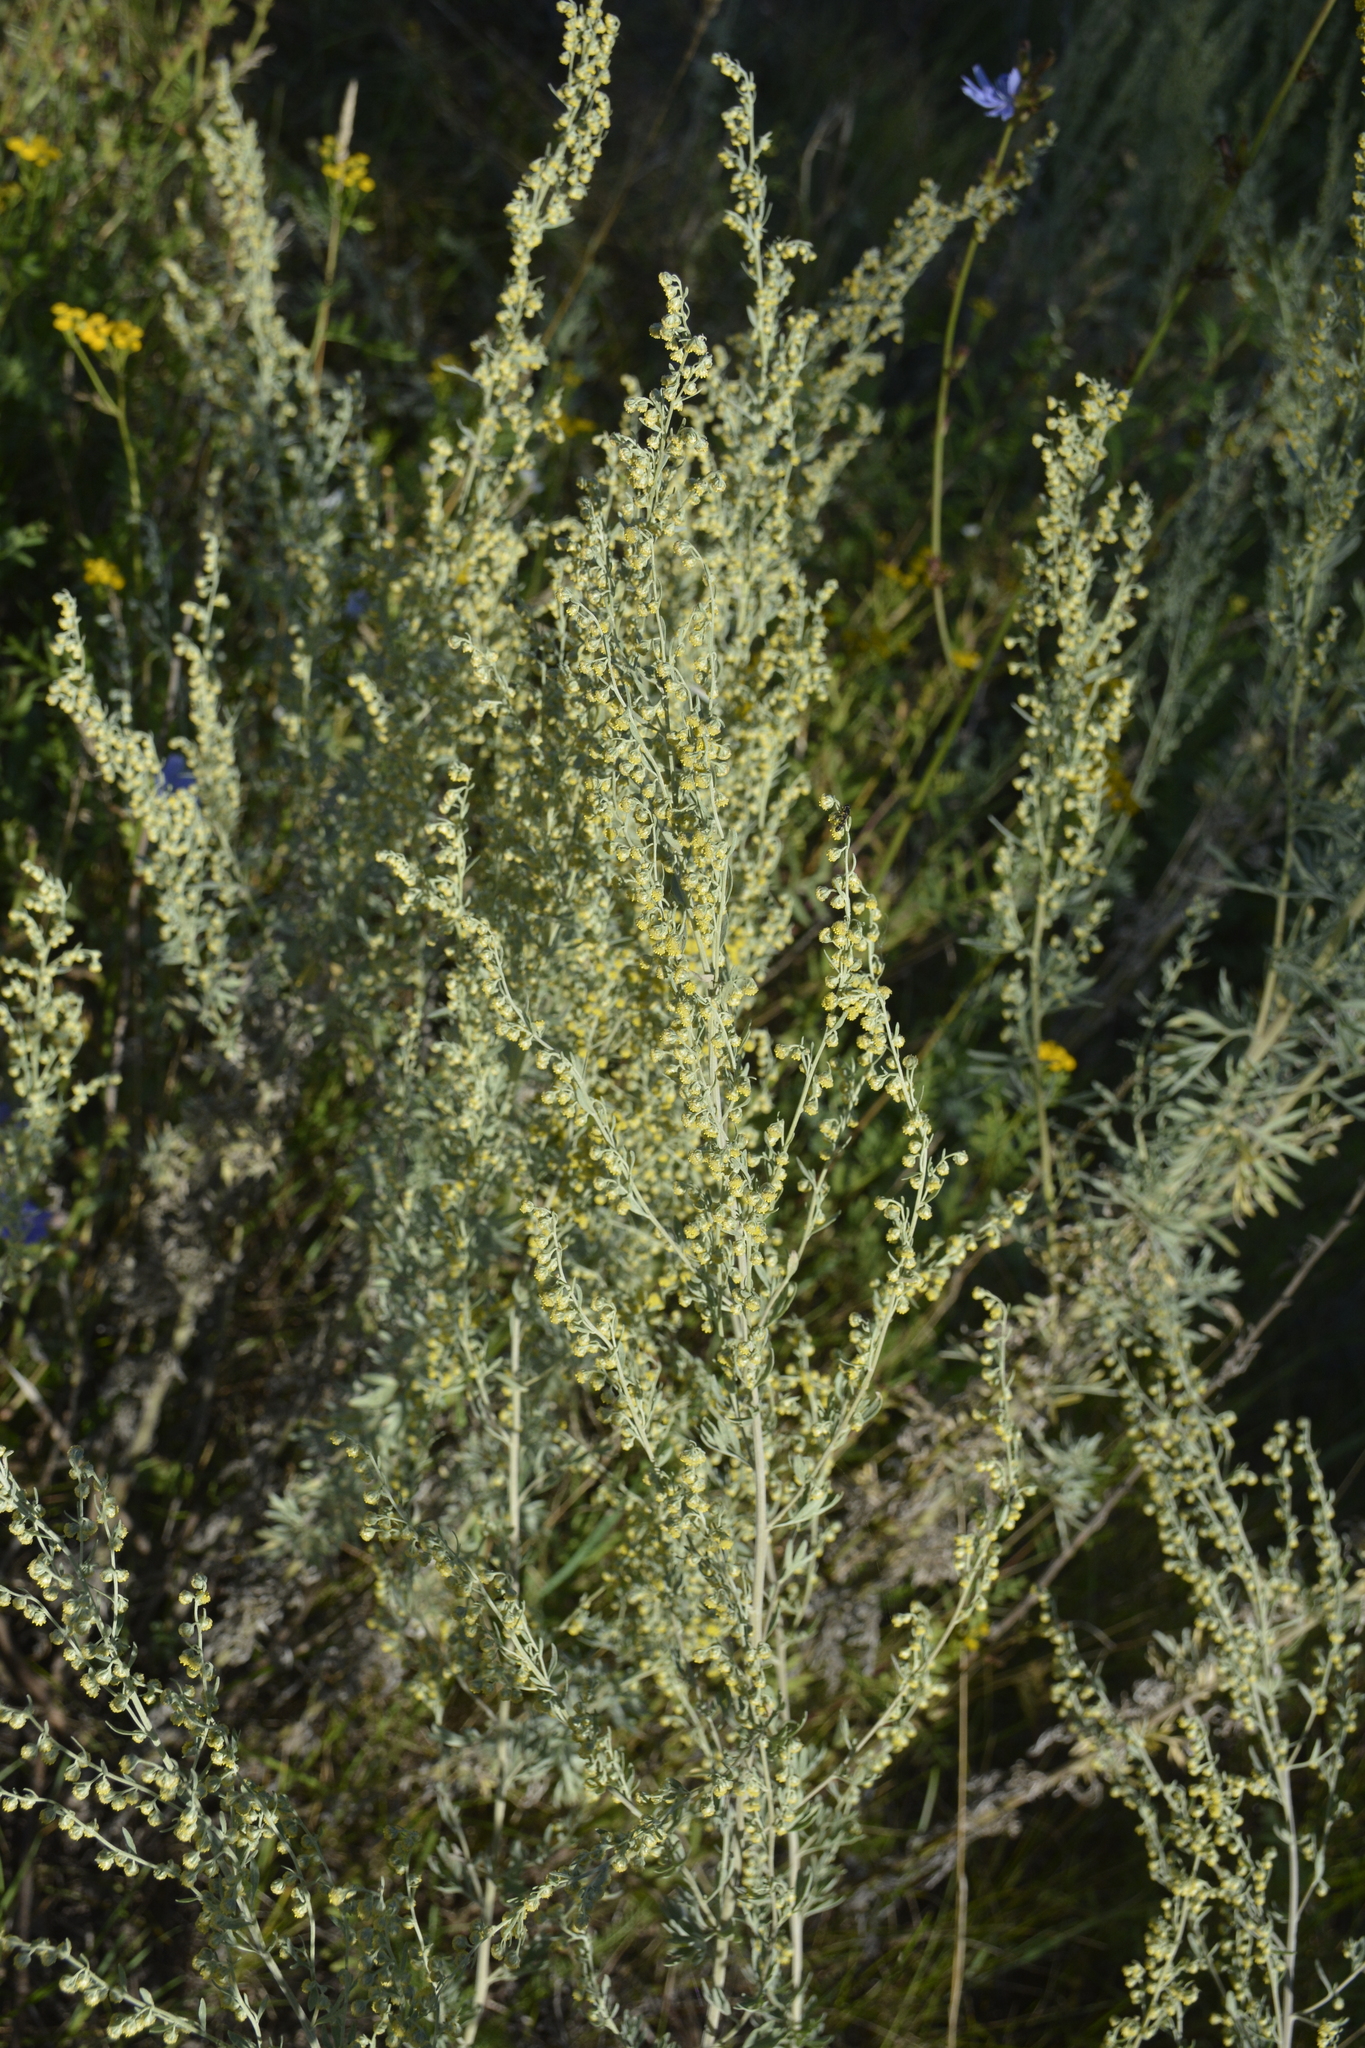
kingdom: Plantae
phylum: Tracheophyta
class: Magnoliopsida
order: Asterales
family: Asteraceae
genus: Artemisia
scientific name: Artemisia absinthium
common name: Wormwood
